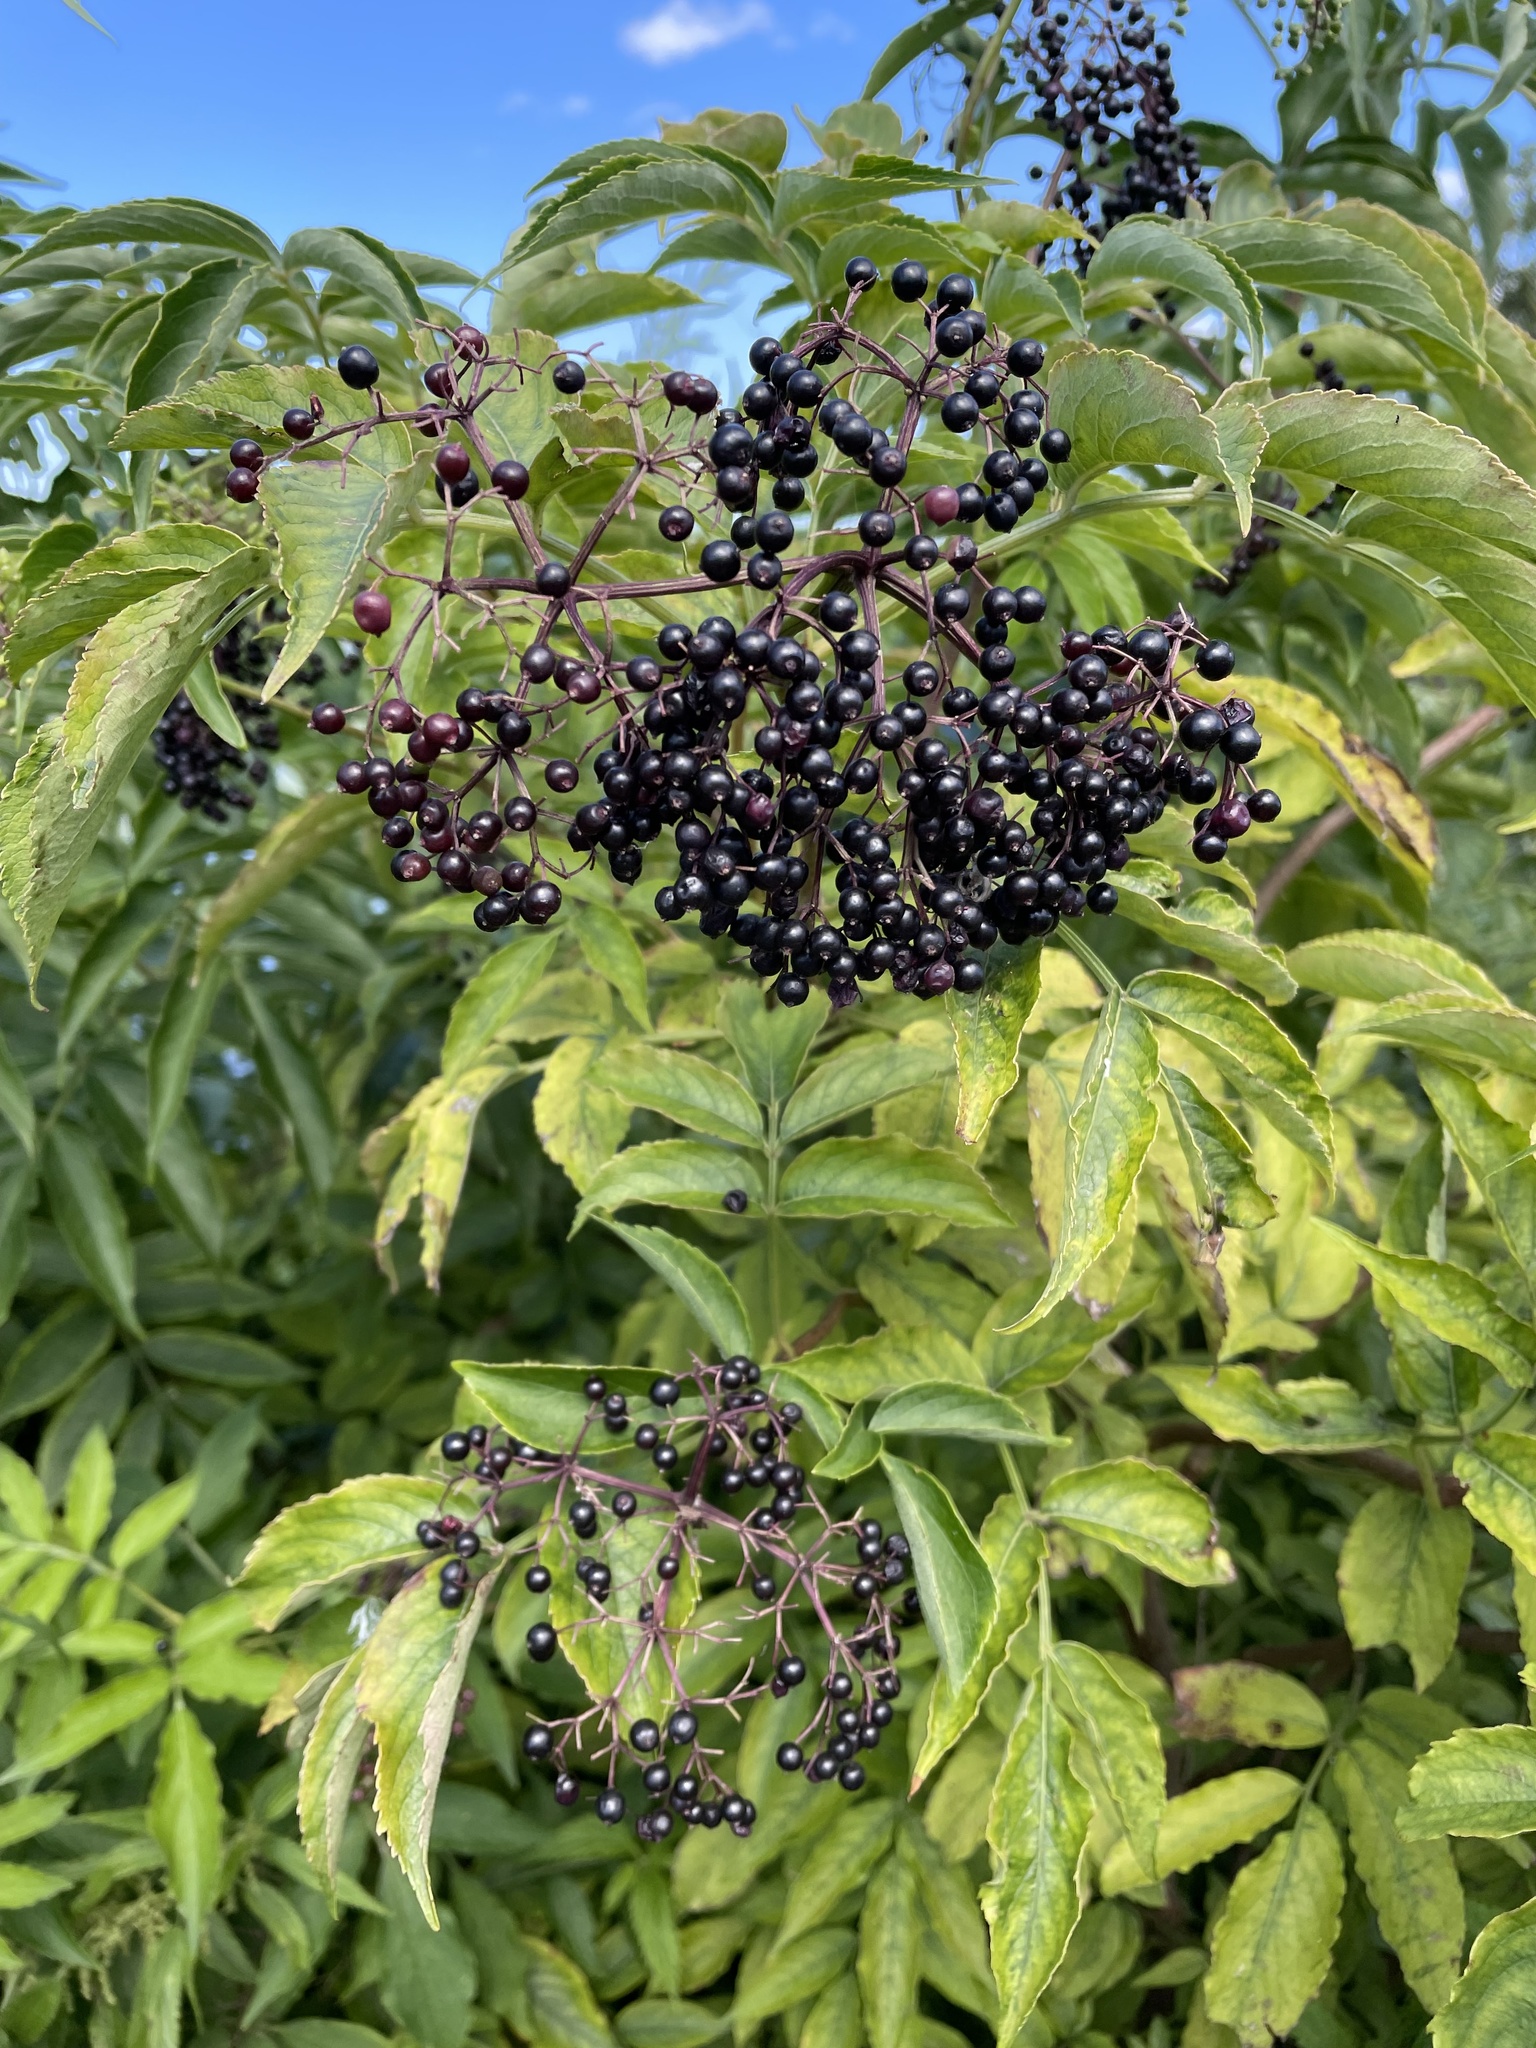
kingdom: Plantae
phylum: Tracheophyta
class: Magnoliopsida
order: Dipsacales
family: Viburnaceae
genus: Sambucus
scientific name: Sambucus canadensis
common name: American elder
